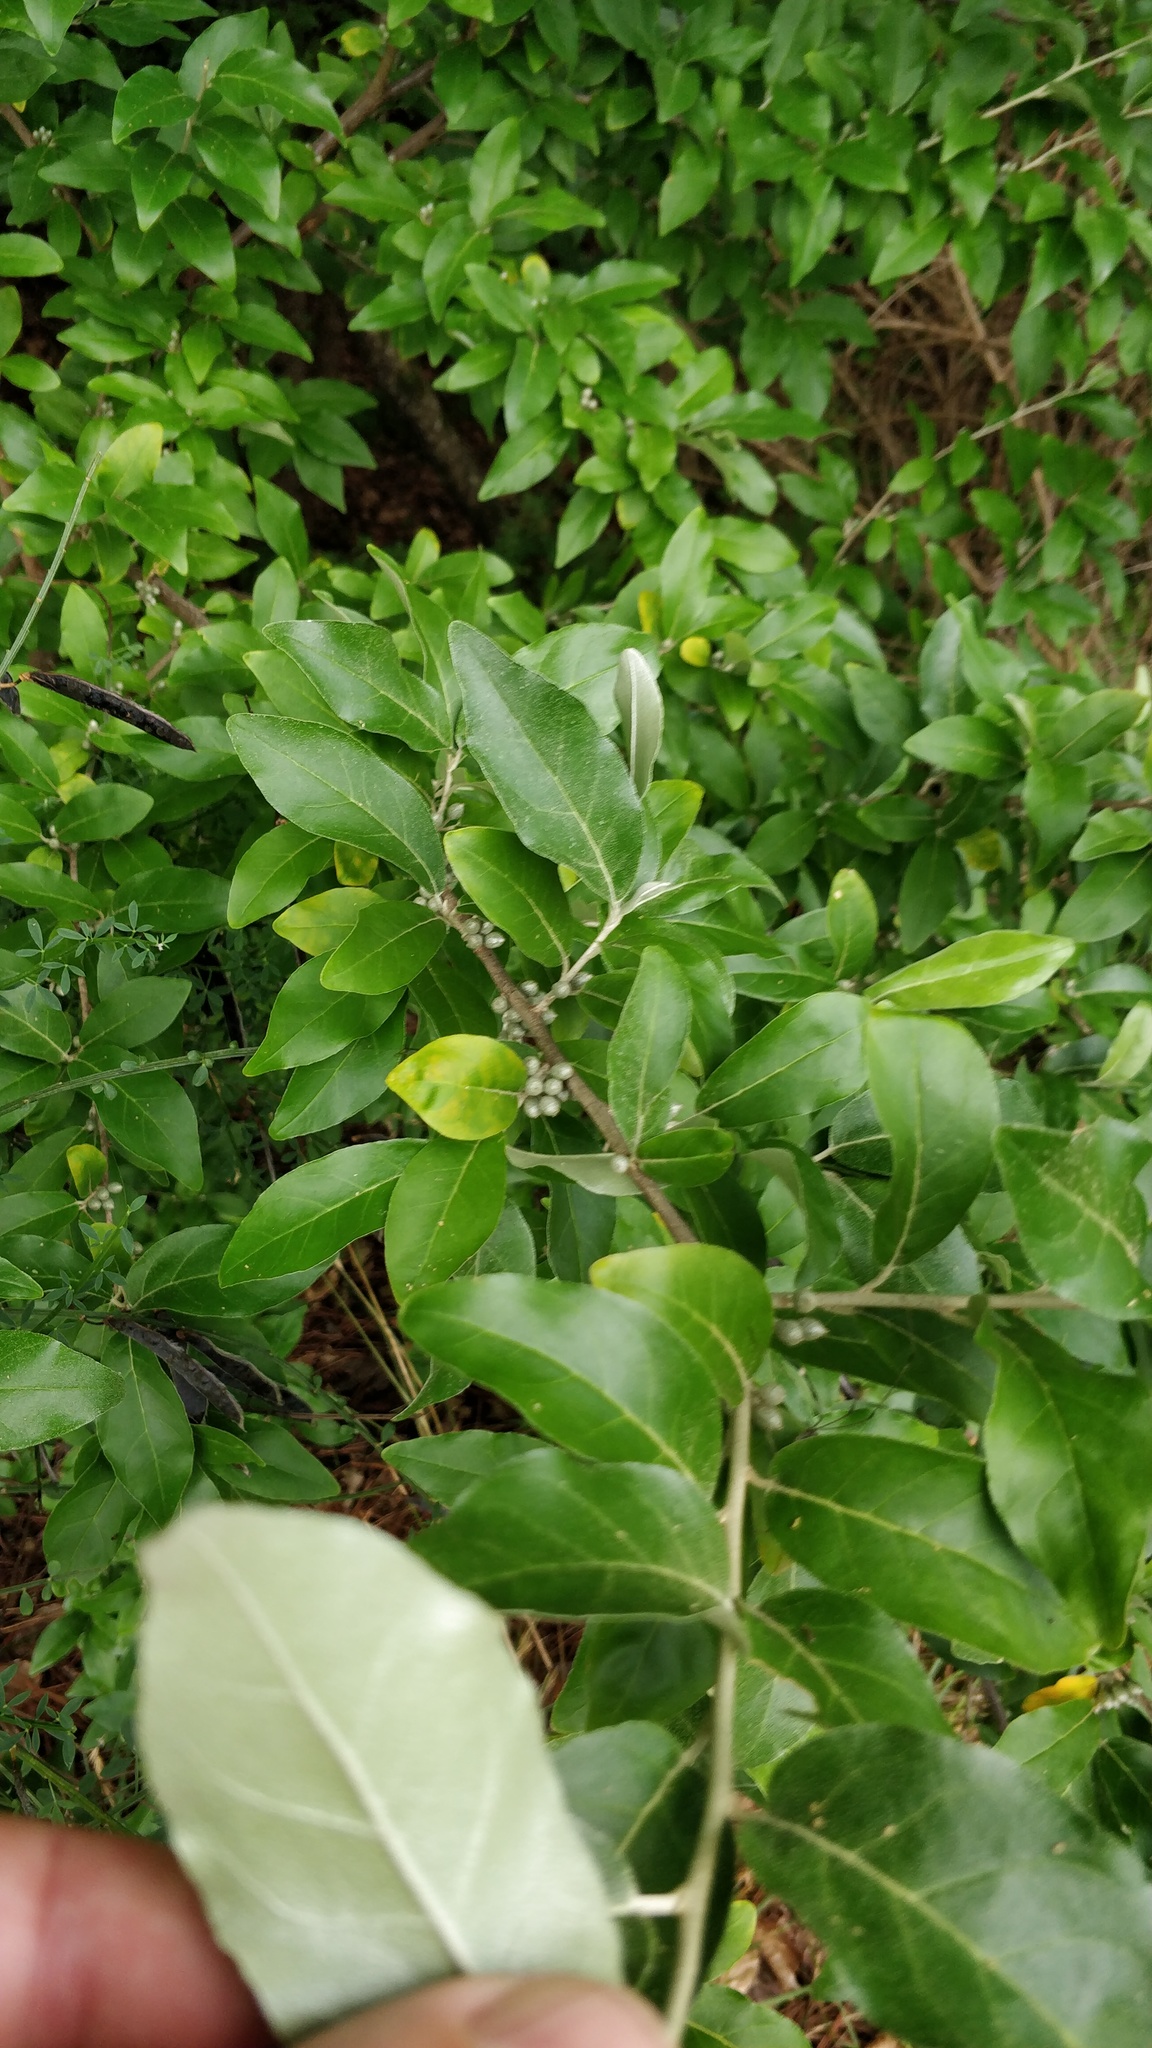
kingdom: Plantae
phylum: Tracheophyta
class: Magnoliopsida
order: Rosales
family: Elaeagnaceae
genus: Elaeagnus
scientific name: Elaeagnus umbellata
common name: Autumn olive
